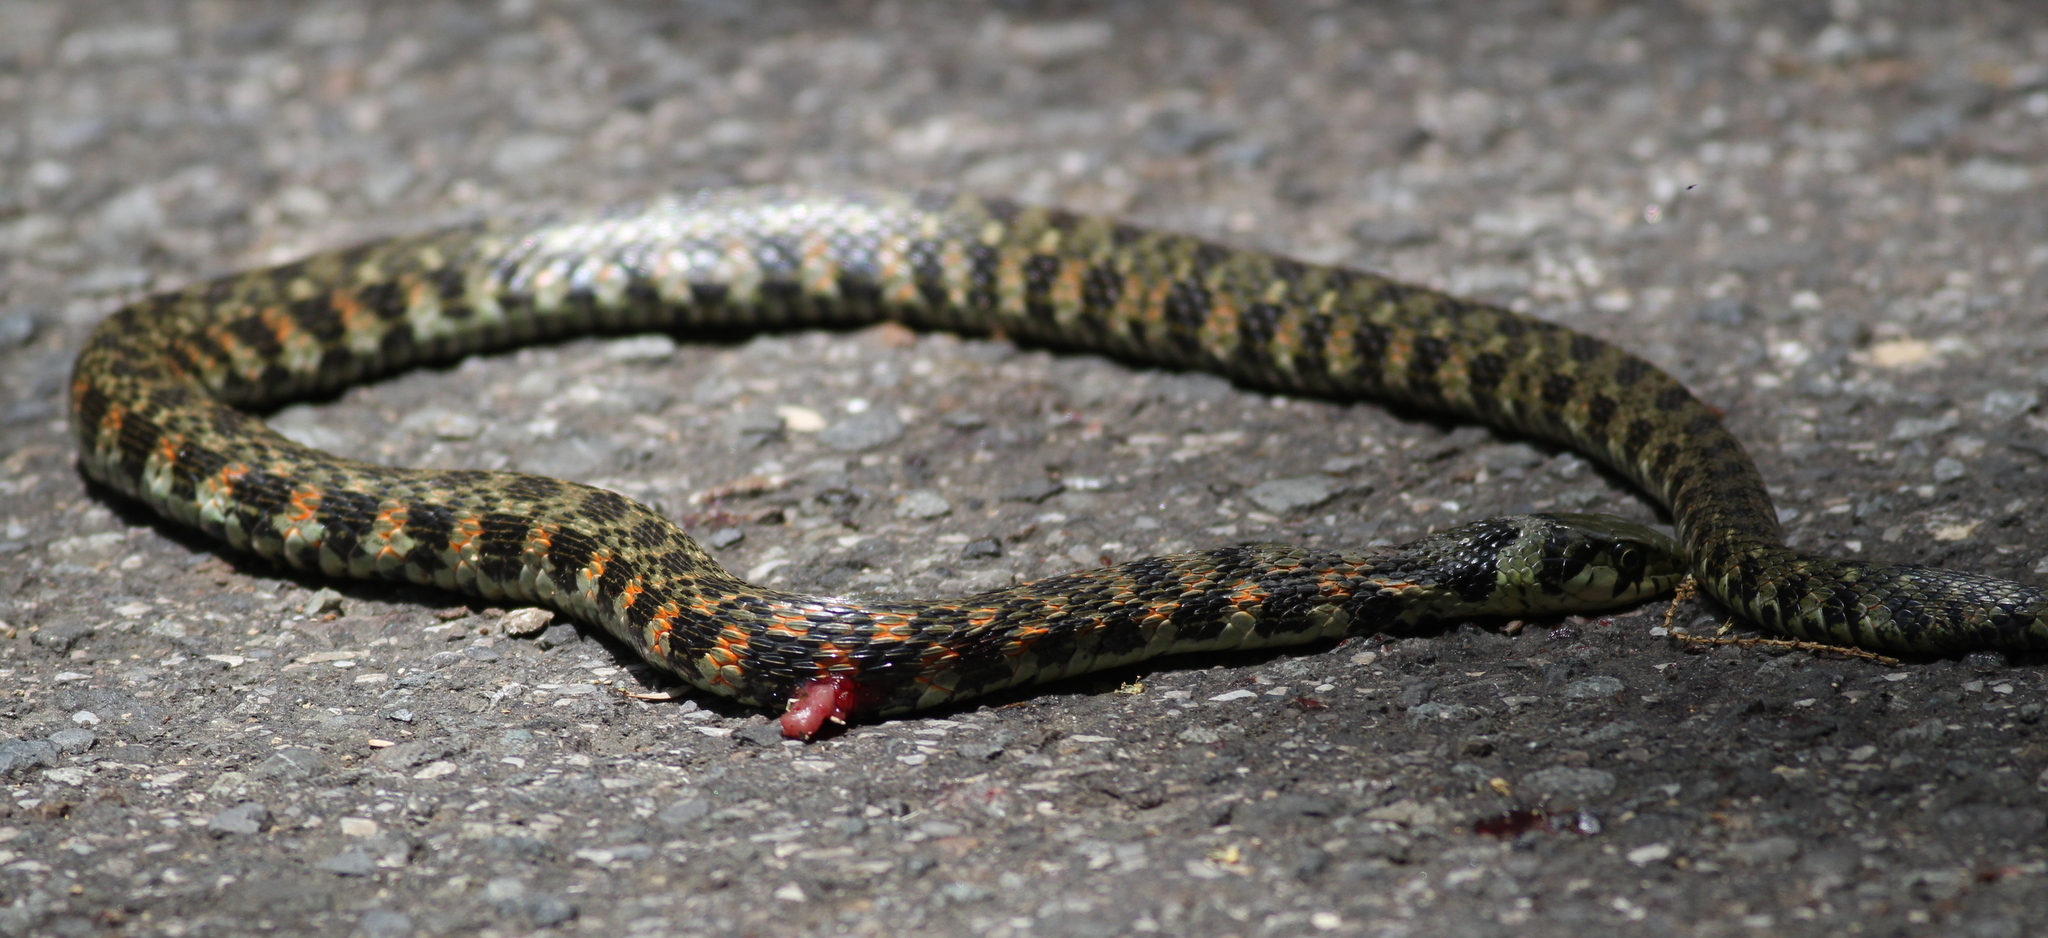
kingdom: Animalia
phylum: Chordata
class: Squamata
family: Colubridae
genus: Rhabdophis
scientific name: Rhabdophis tigrinus
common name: Tiger keelback
